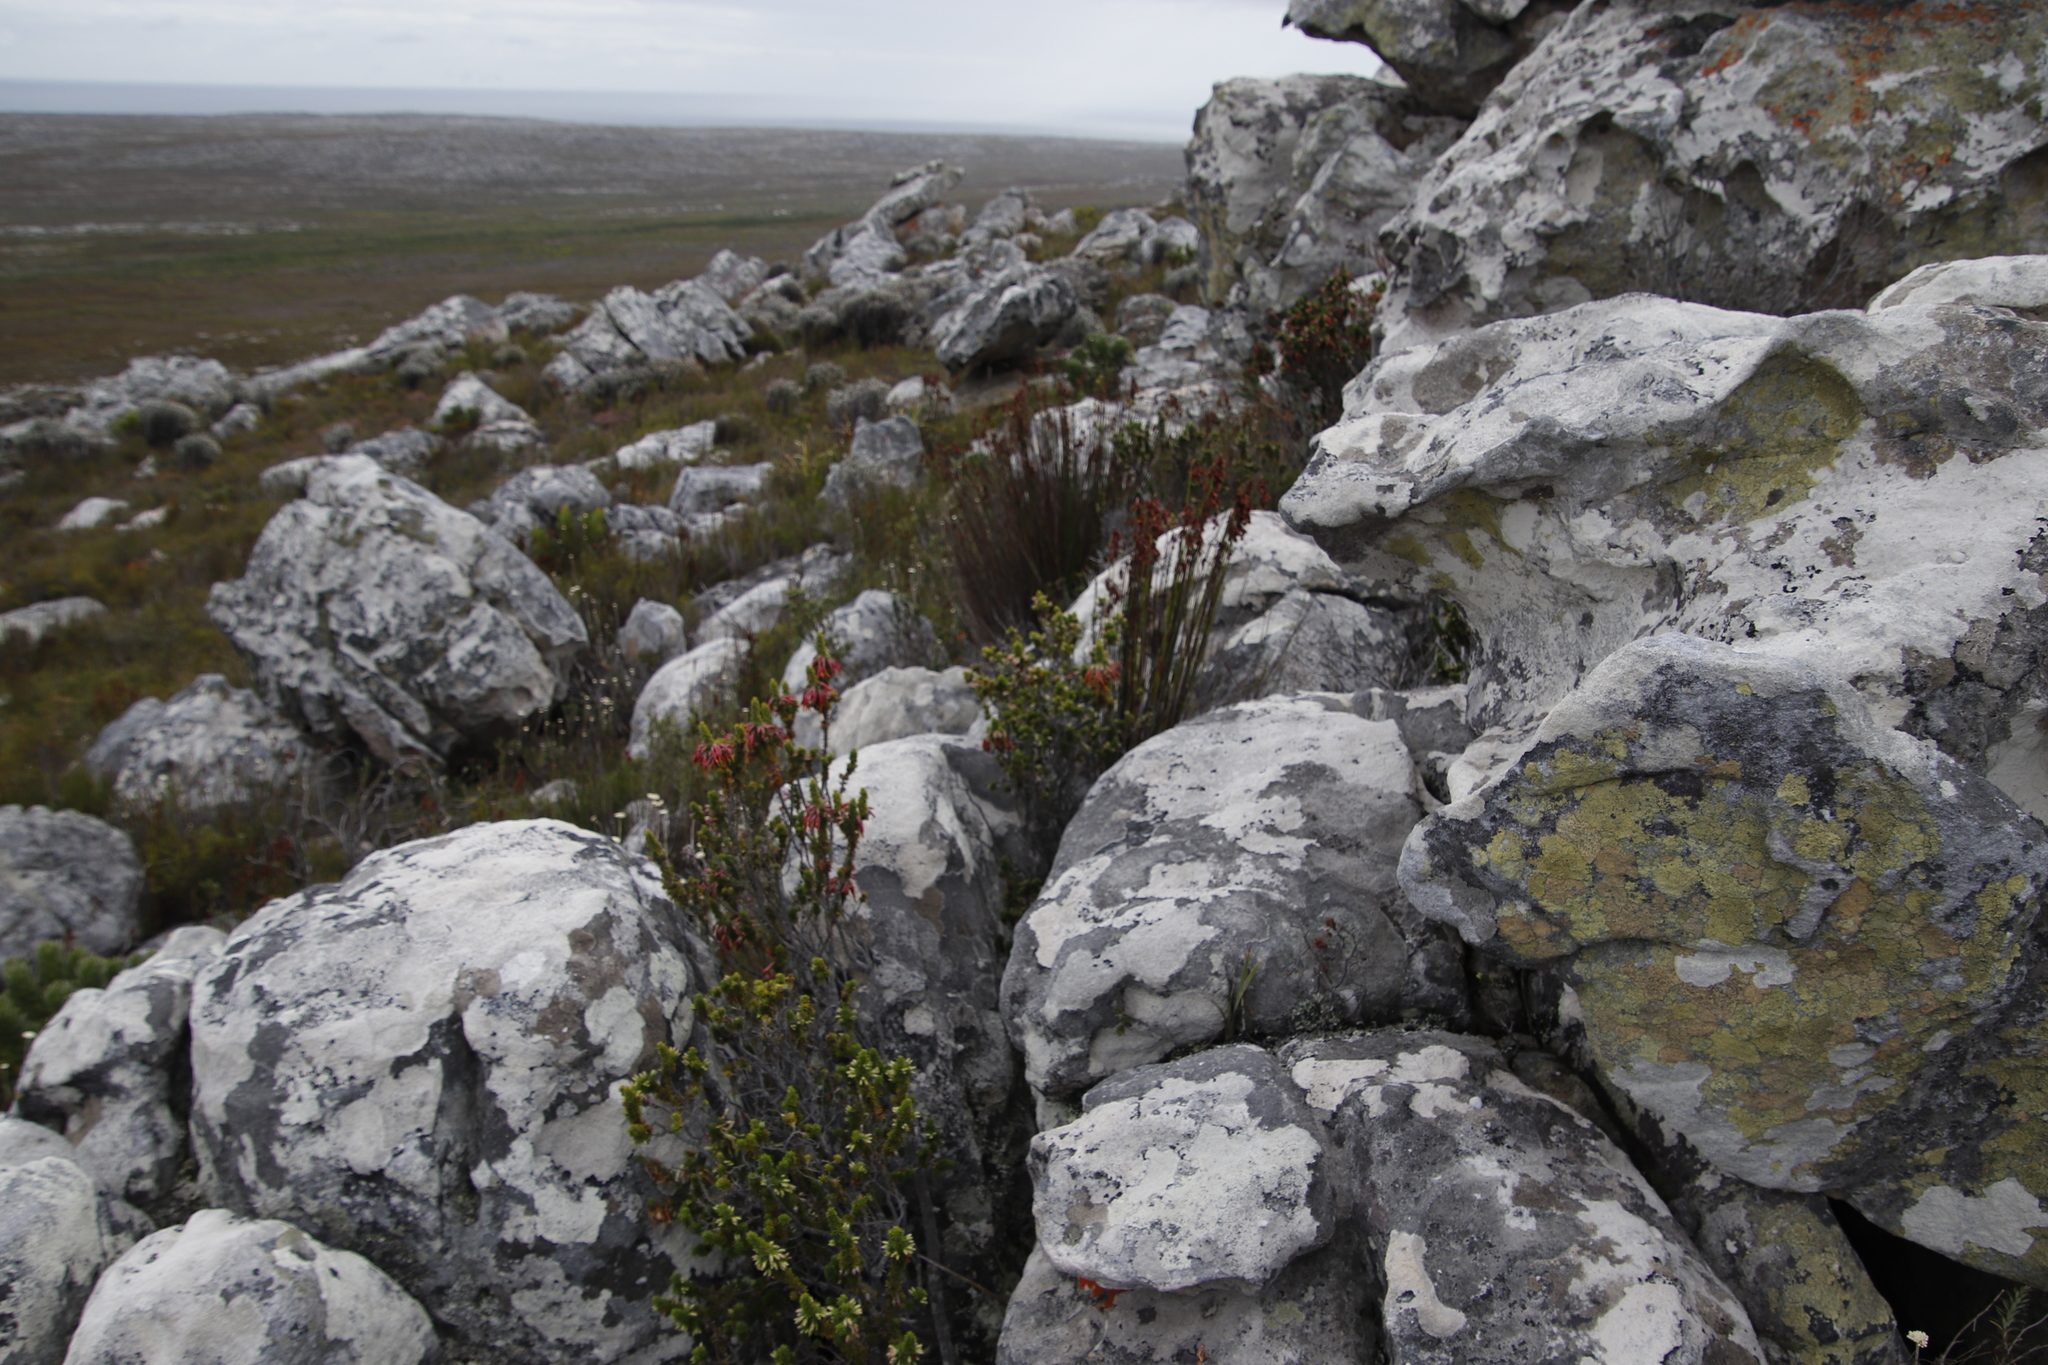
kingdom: Plantae
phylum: Tracheophyta
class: Magnoliopsida
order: Ericales
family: Ericaceae
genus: Erica
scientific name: Erica coccinea
